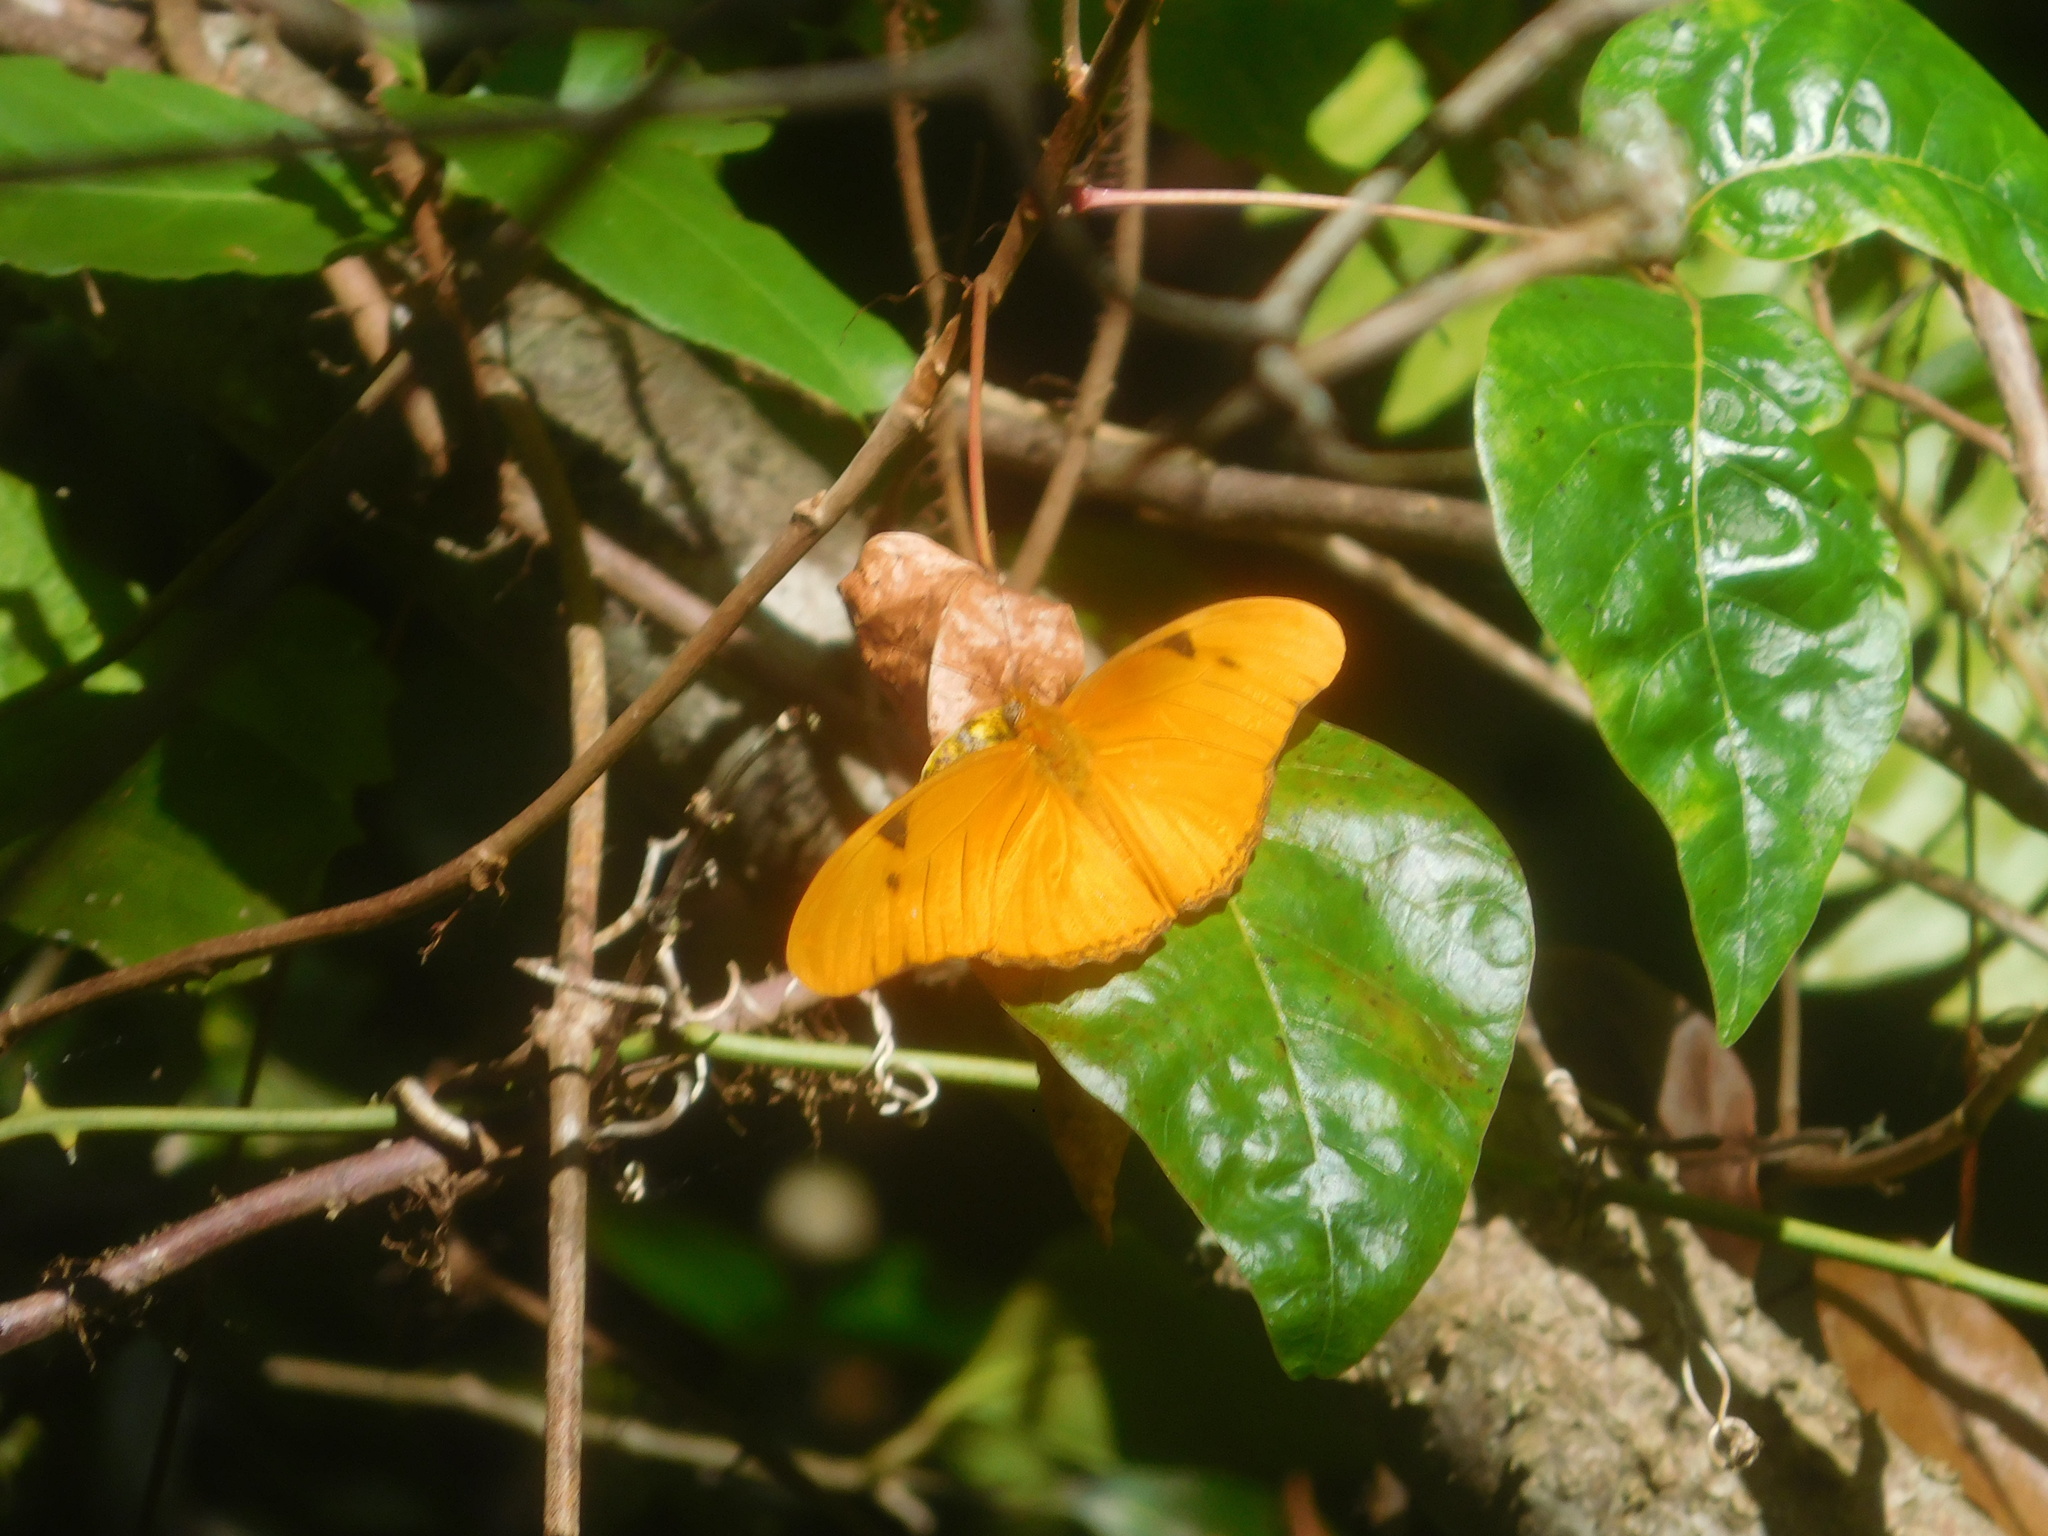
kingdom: Animalia
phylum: Arthropoda
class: Insecta
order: Lepidoptera
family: Nymphalidae
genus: Dryas
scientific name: Dryas iulia
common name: Flambeau
